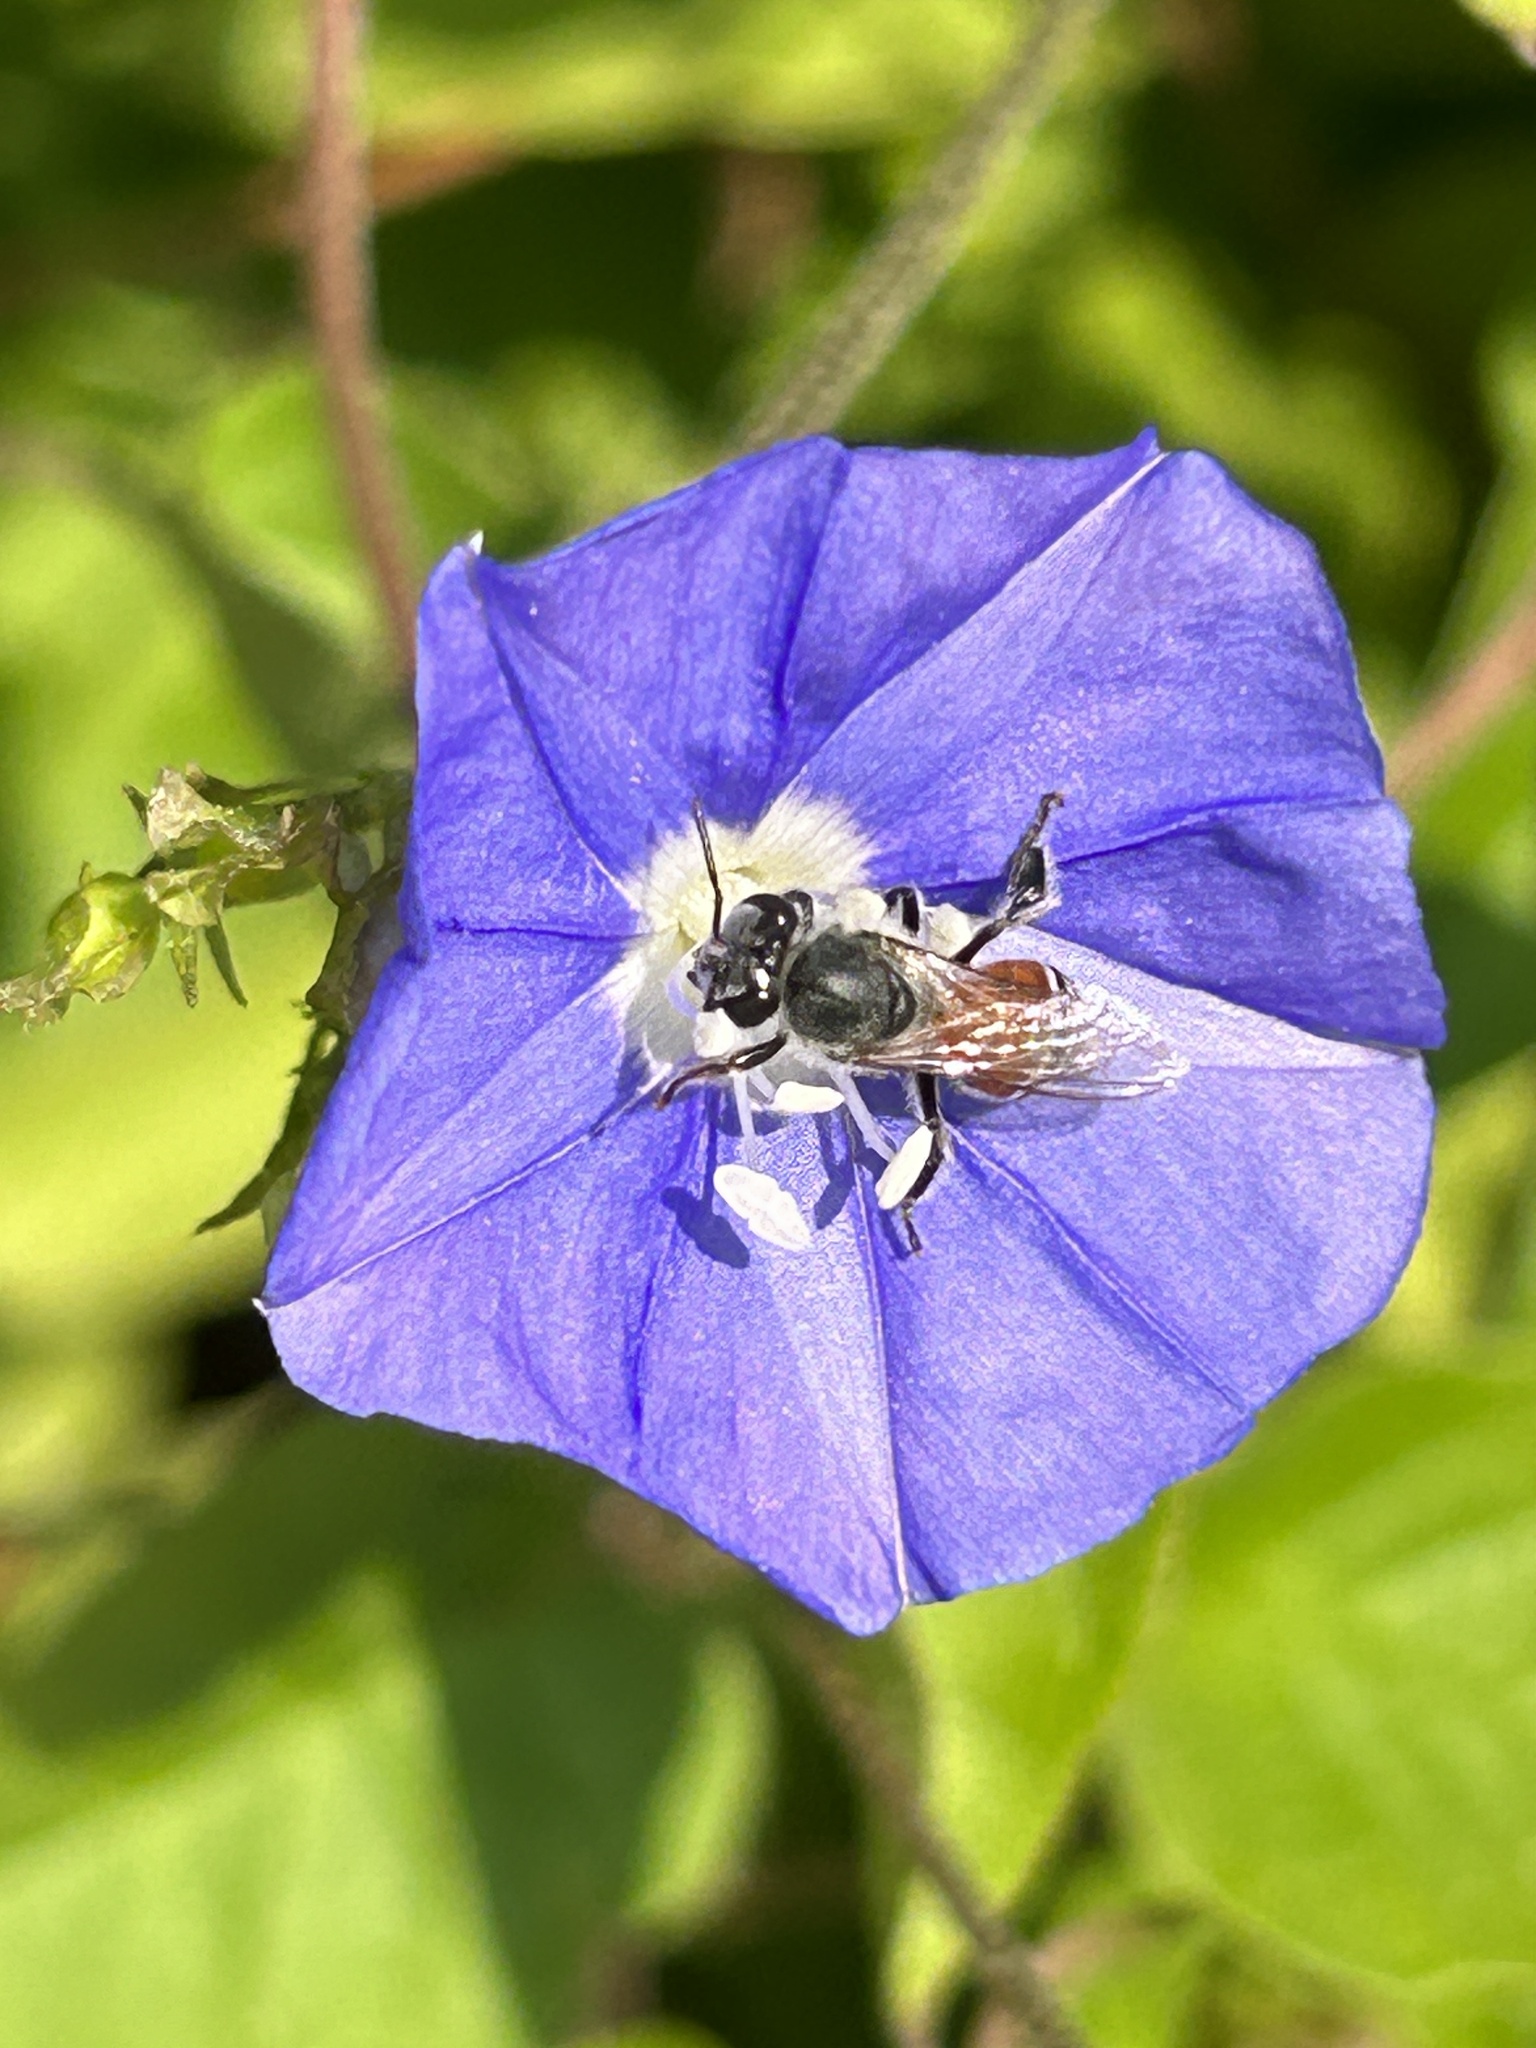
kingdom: Animalia
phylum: Arthropoda
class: Insecta
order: Hymenoptera
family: Apidae
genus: Apis
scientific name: Apis florea
